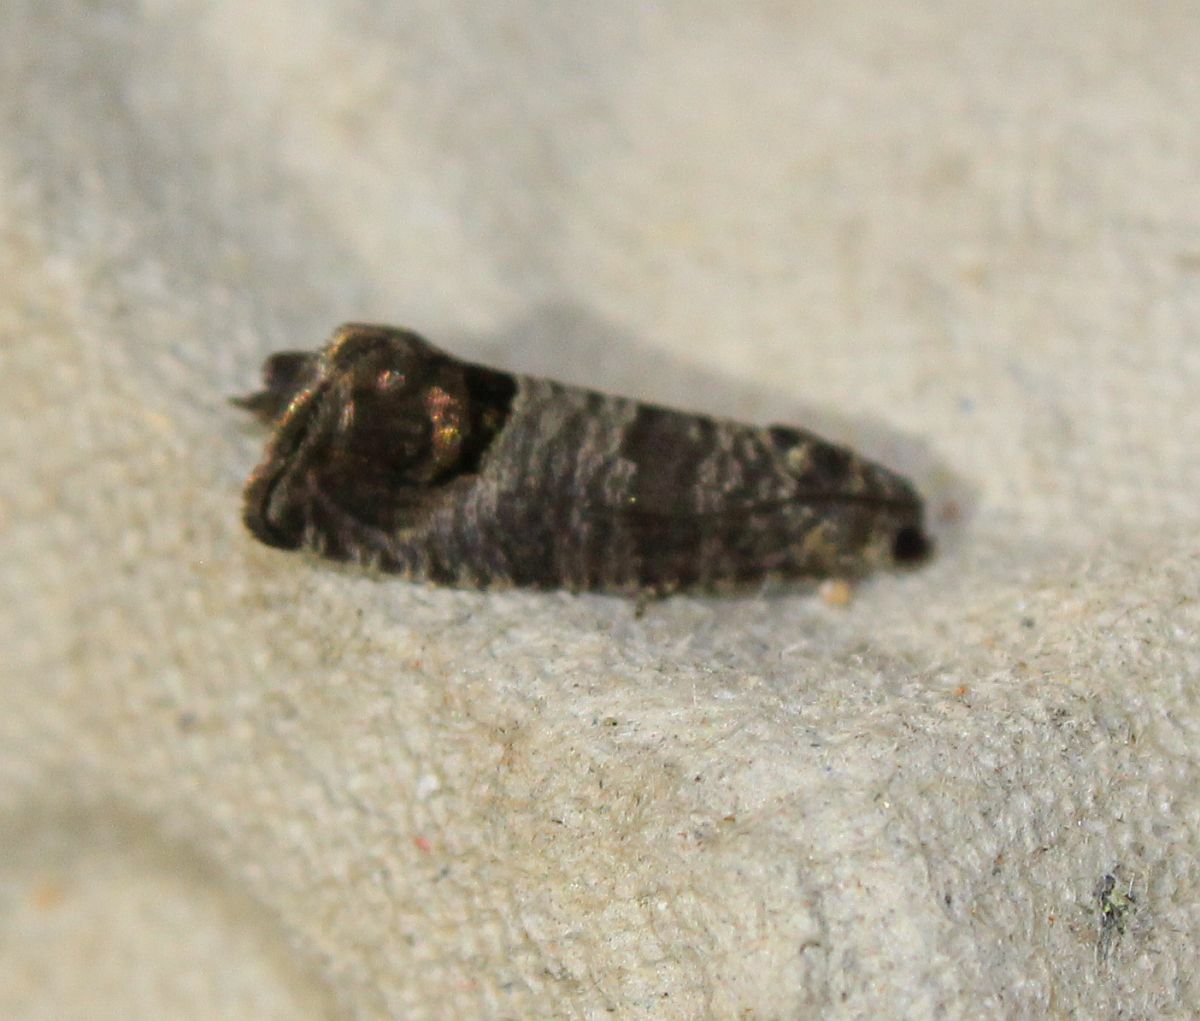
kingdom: Animalia
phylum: Arthropoda
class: Insecta
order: Lepidoptera
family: Tortricidae
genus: Cydia
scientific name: Cydia pomonella
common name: Codling moth
